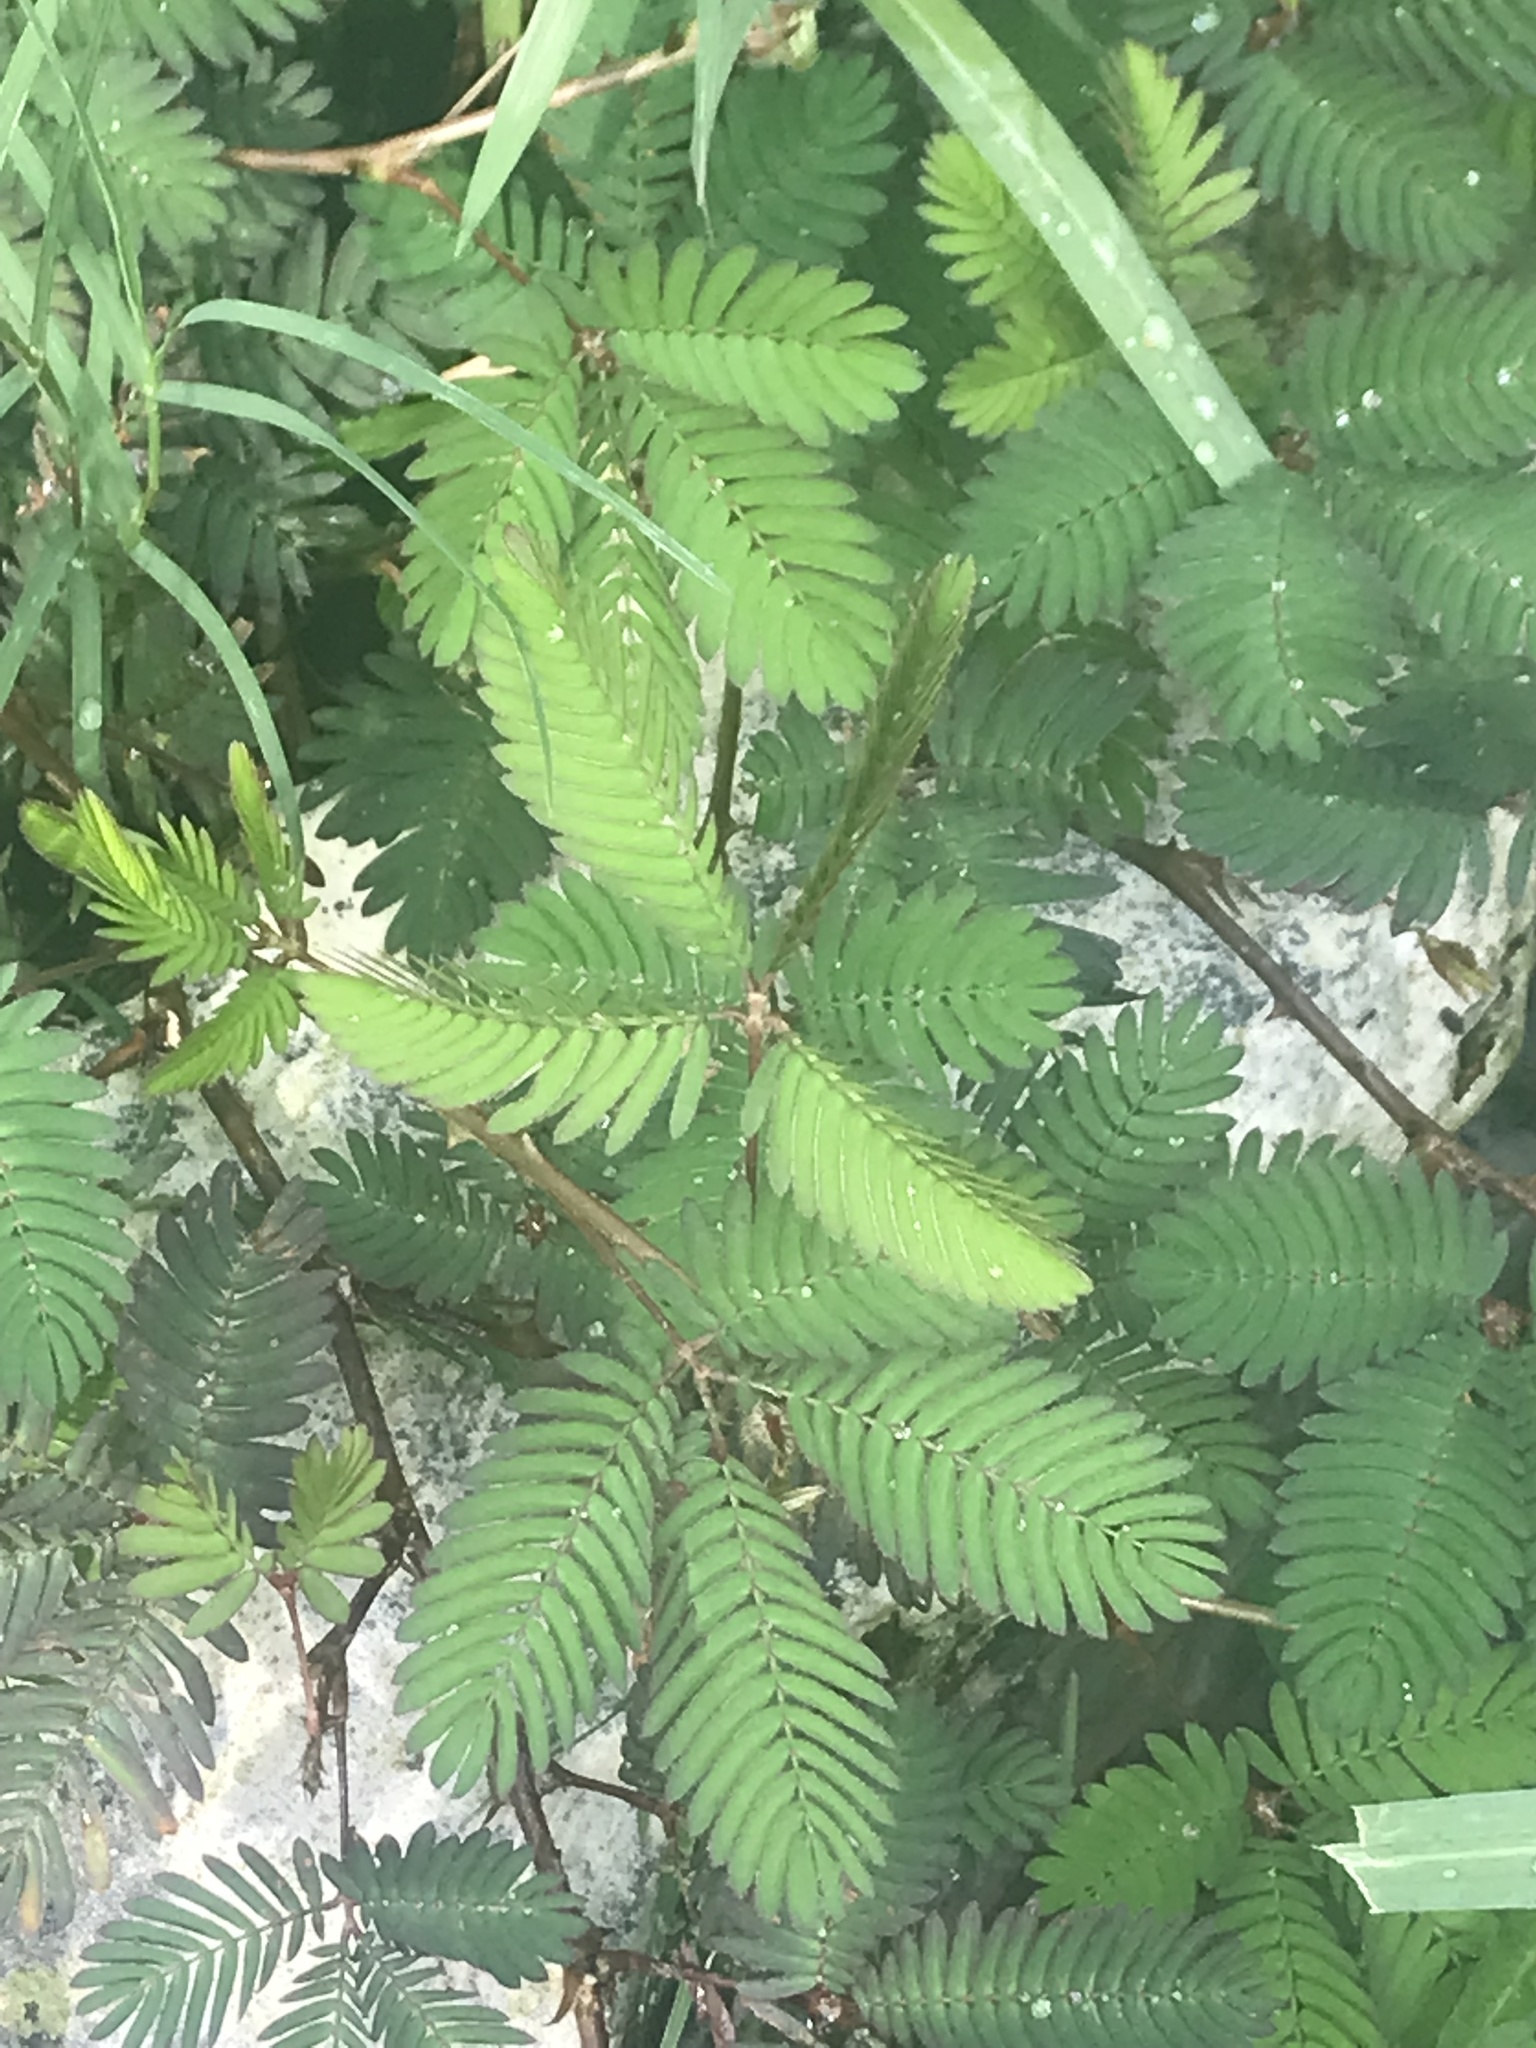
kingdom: Plantae
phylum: Tracheophyta
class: Magnoliopsida
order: Fabales
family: Fabaceae
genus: Mimosa
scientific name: Mimosa pudica
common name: Sensitive plant
